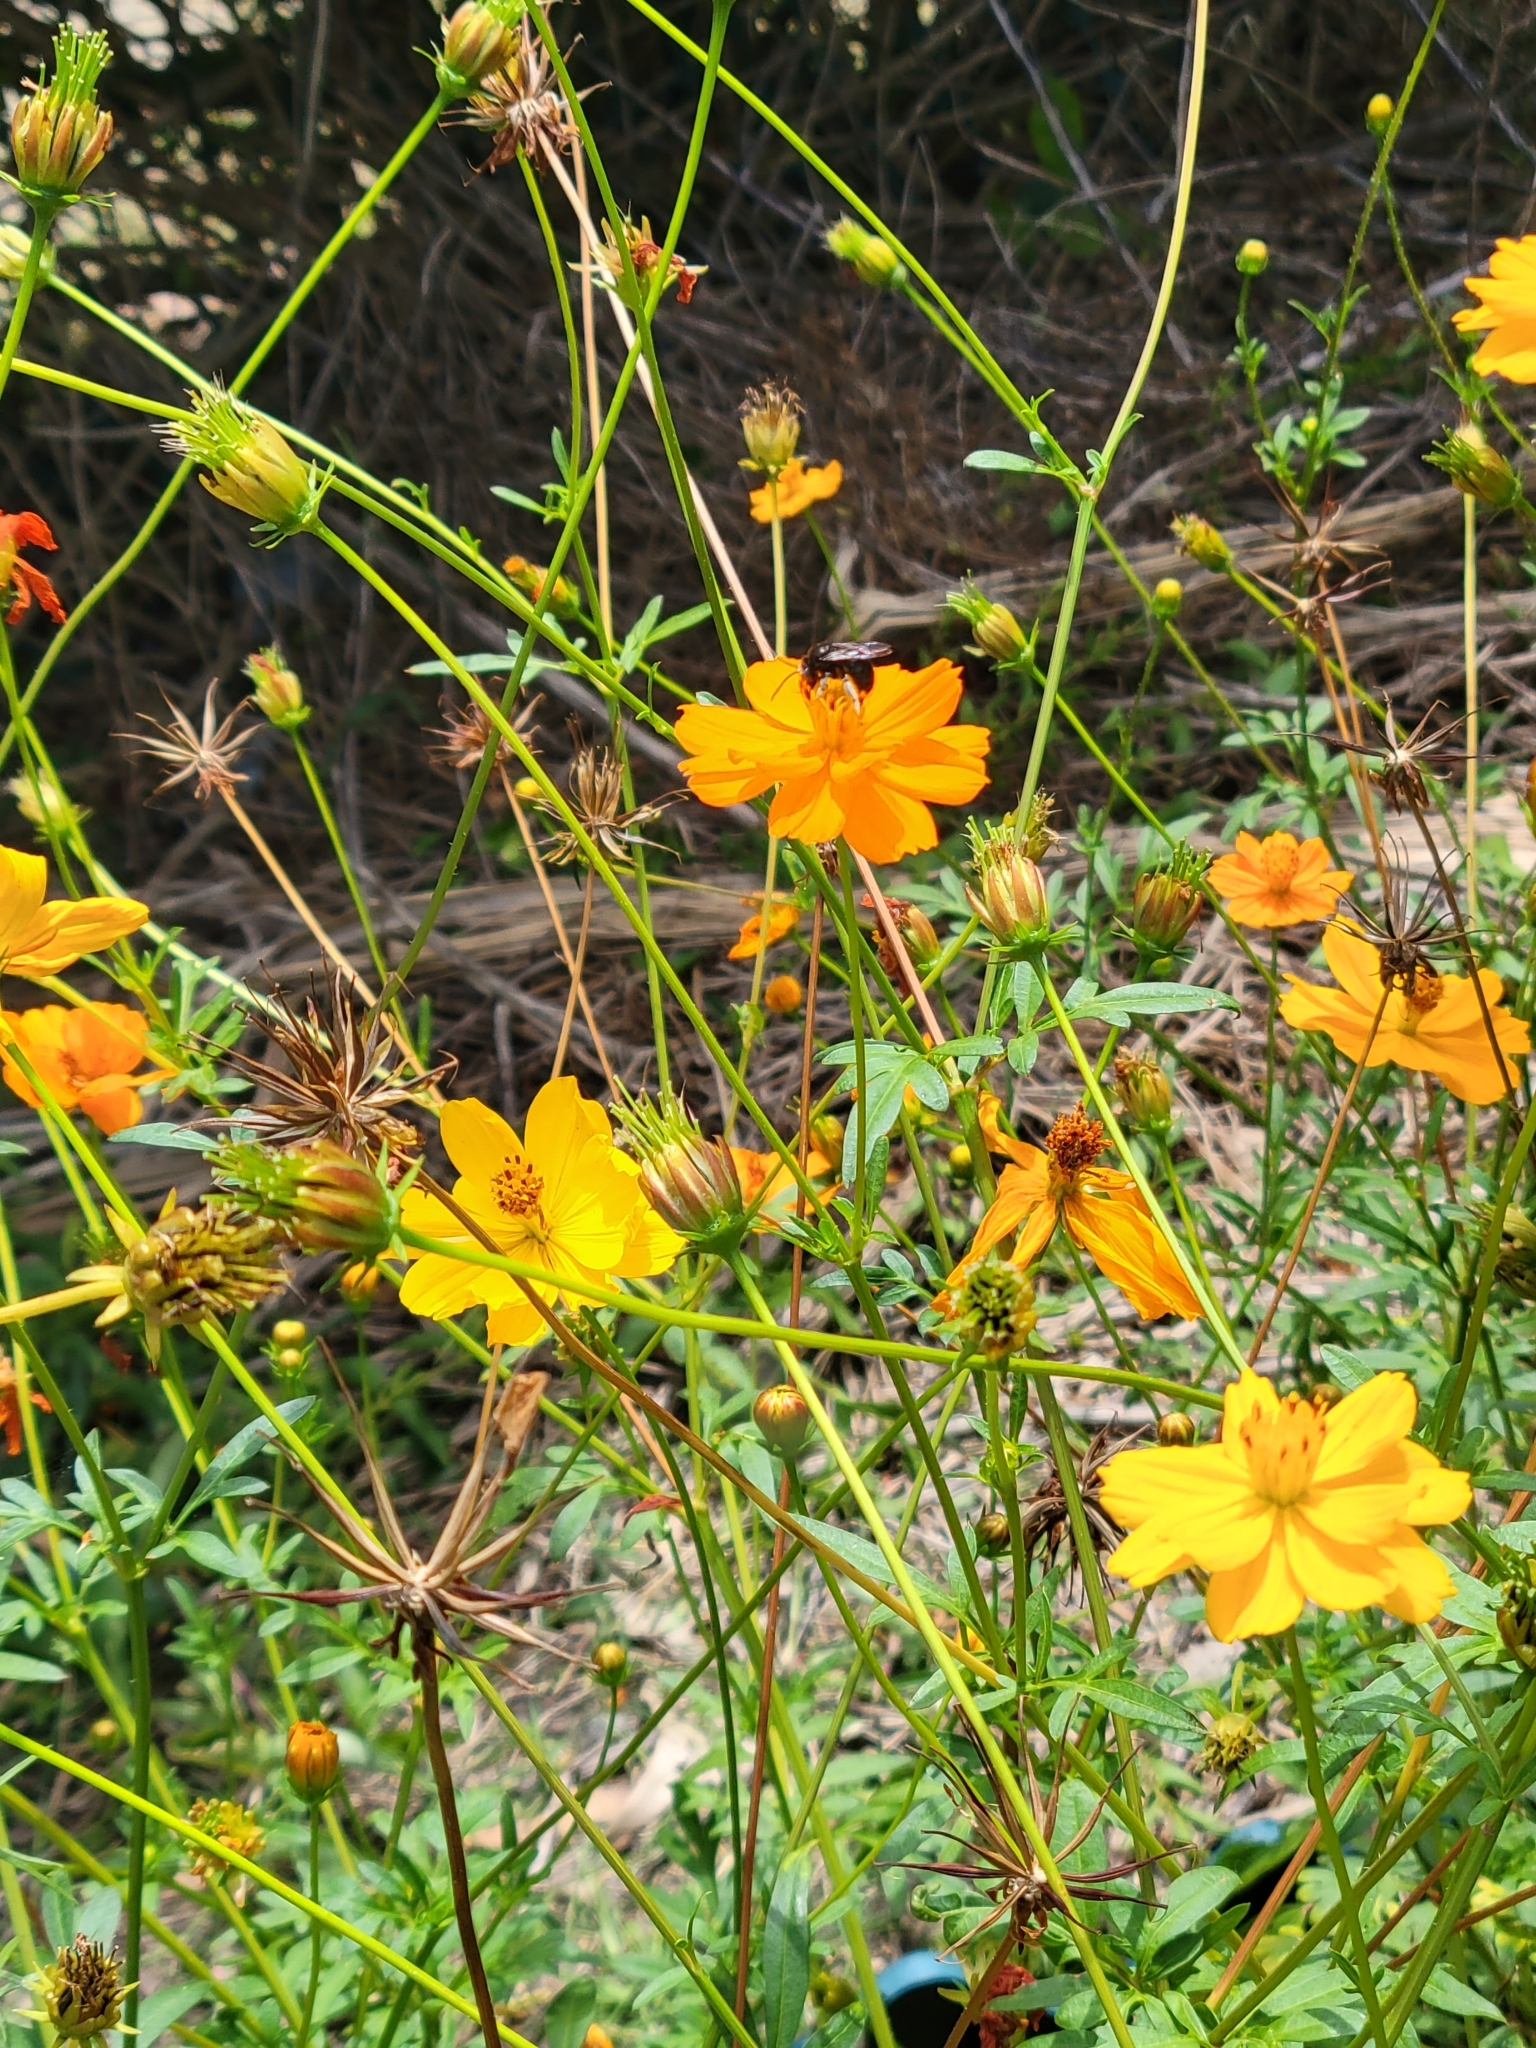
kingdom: Plantae
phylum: Tracheophyta
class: Magnoliopsida
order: Asterales
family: Asteraceae
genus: Cosmos
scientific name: Cosmos sulphureus
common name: Sulphur cosmos
